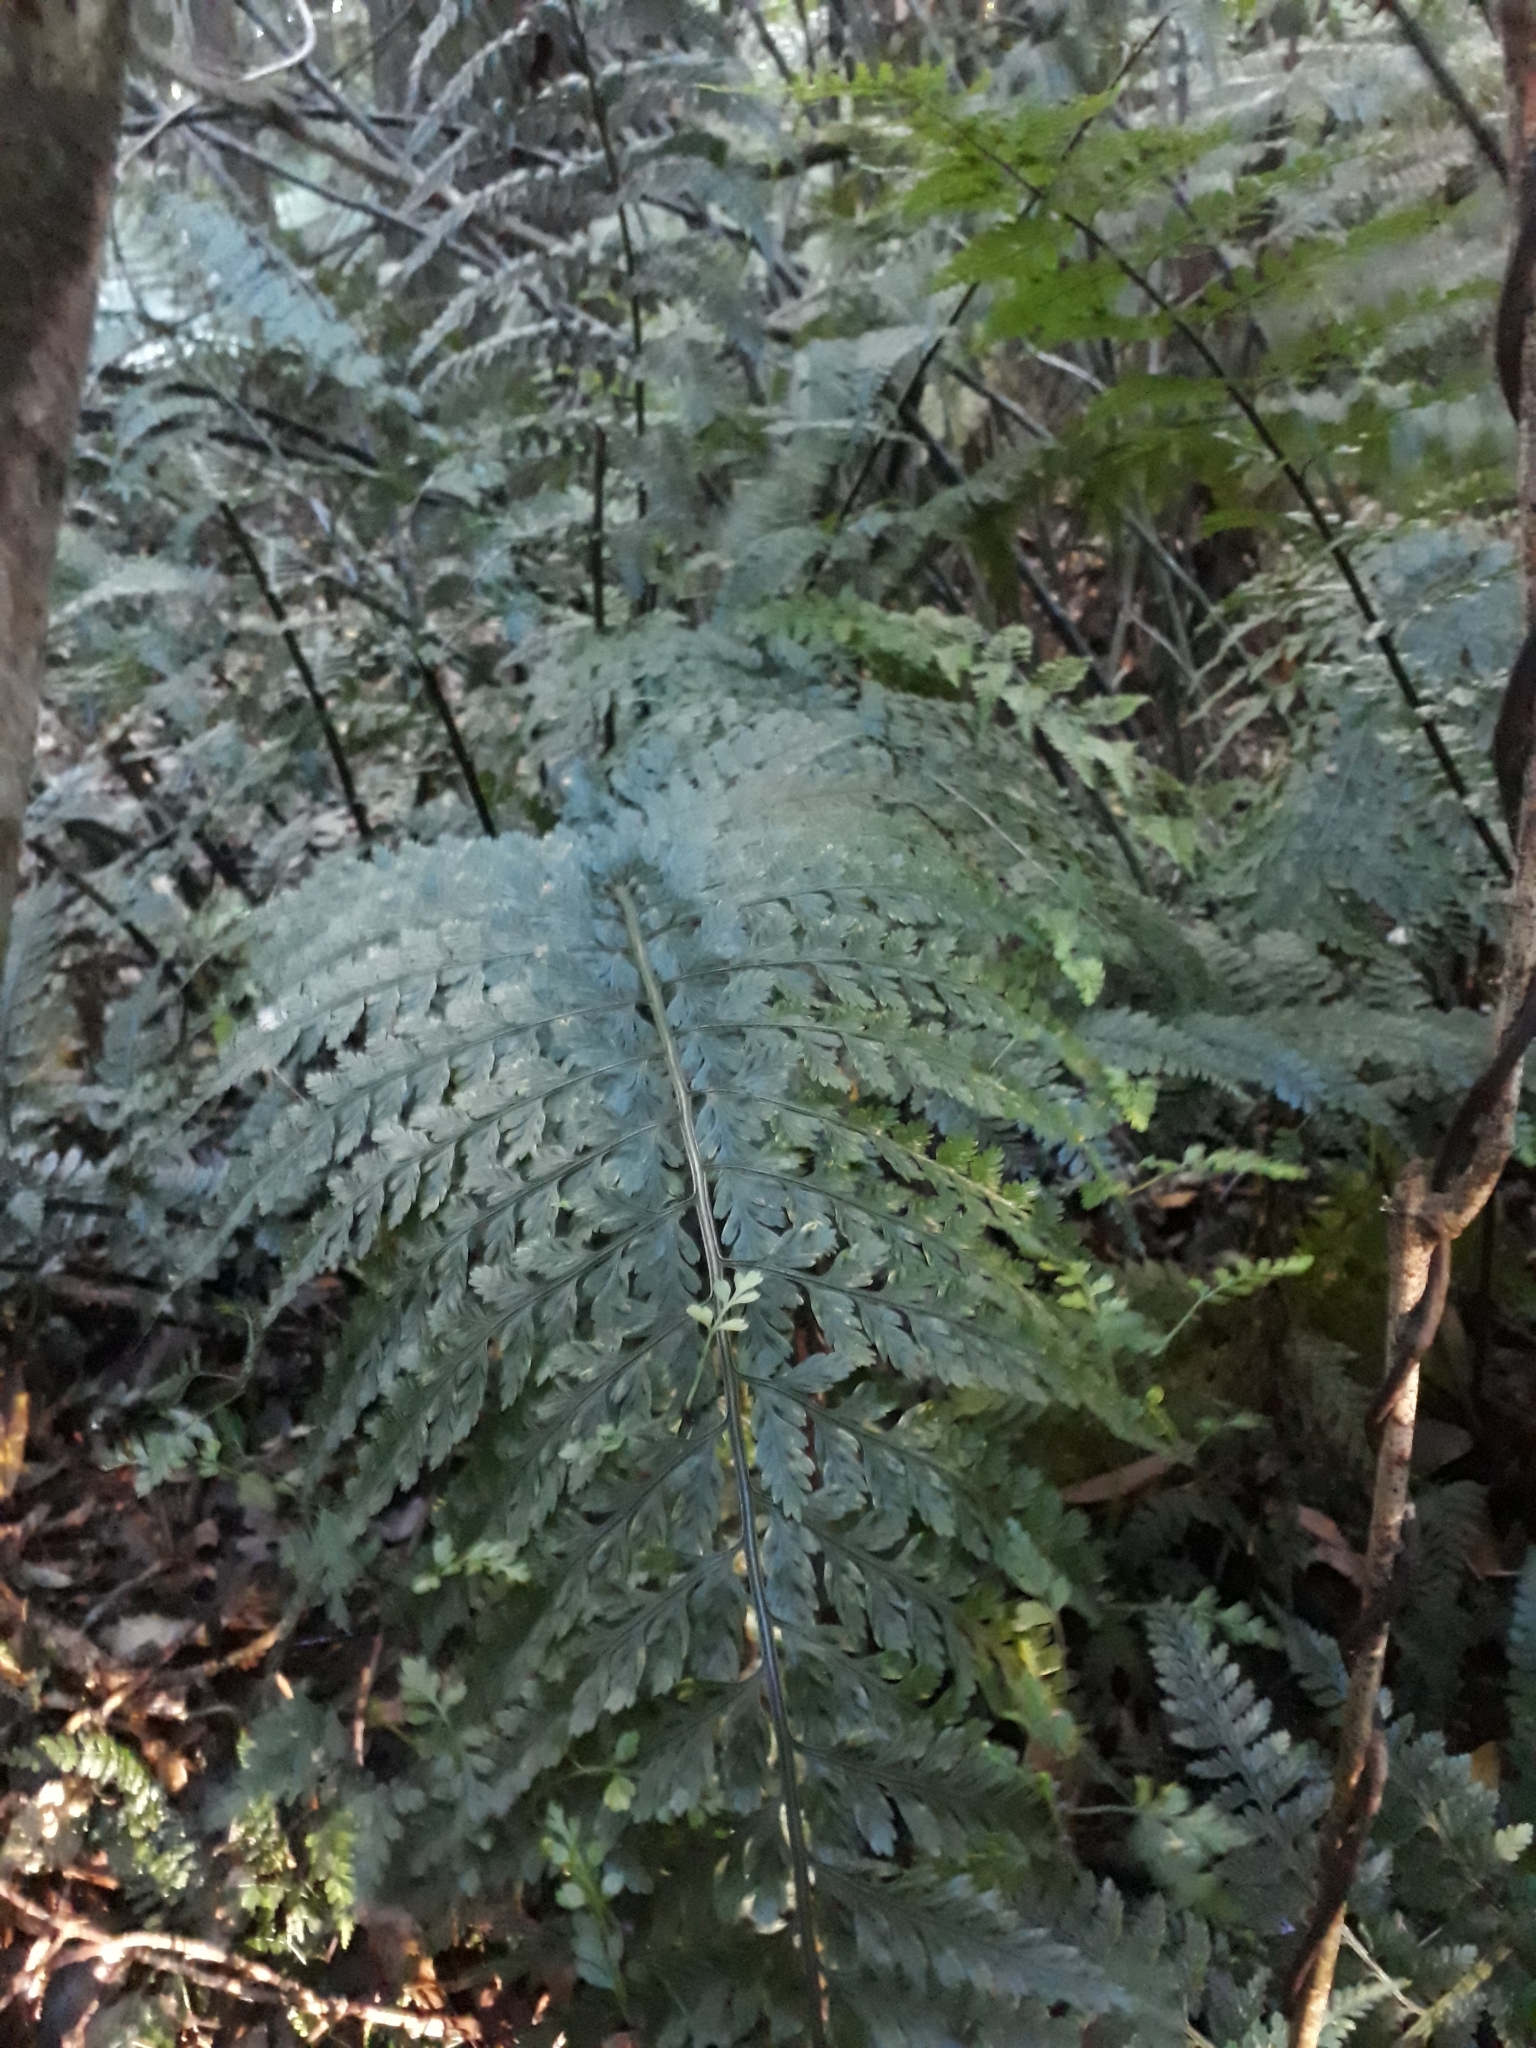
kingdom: Plantae
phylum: Tracheophyta
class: Polypodiopsida
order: Polypodiales
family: Aspleniaceae
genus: Asplenium
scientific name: Asplenium bulbiferum
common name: Mother fern
